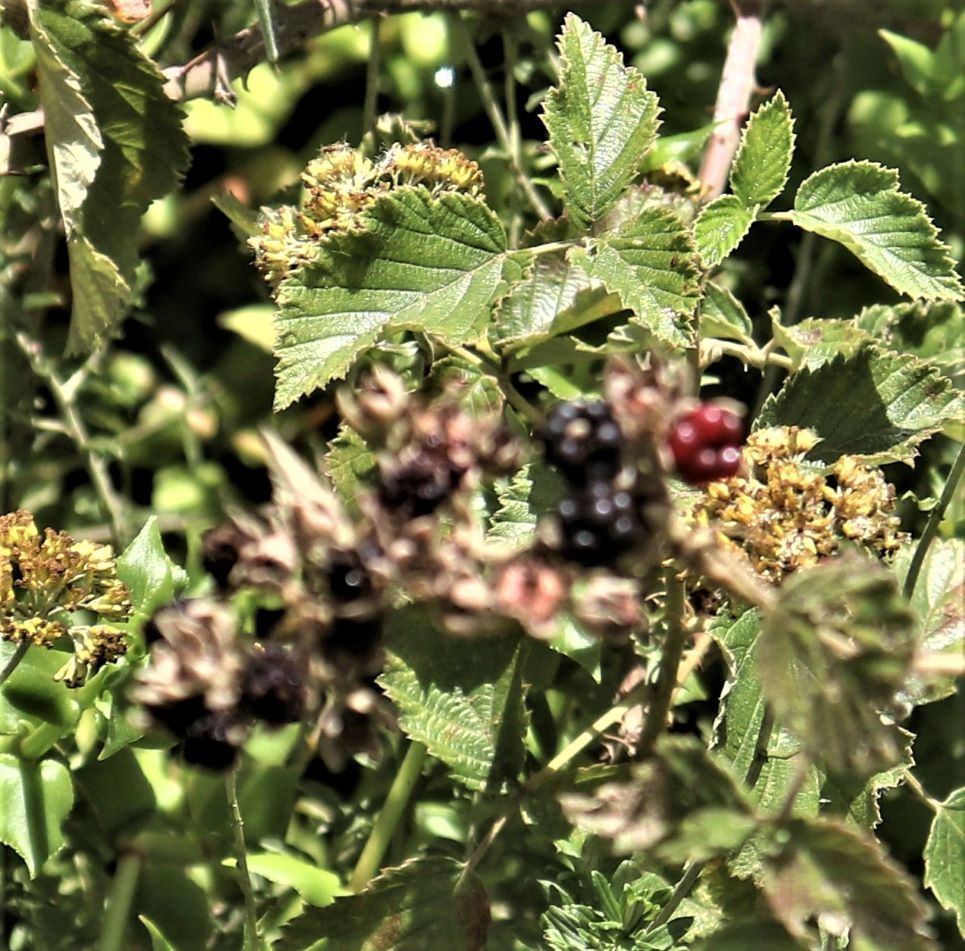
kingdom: Plantae
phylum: Tracheophyta
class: Magnoliopsida
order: Rosales
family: Rosaceae
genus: Rubus
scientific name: Rubus rigidus
